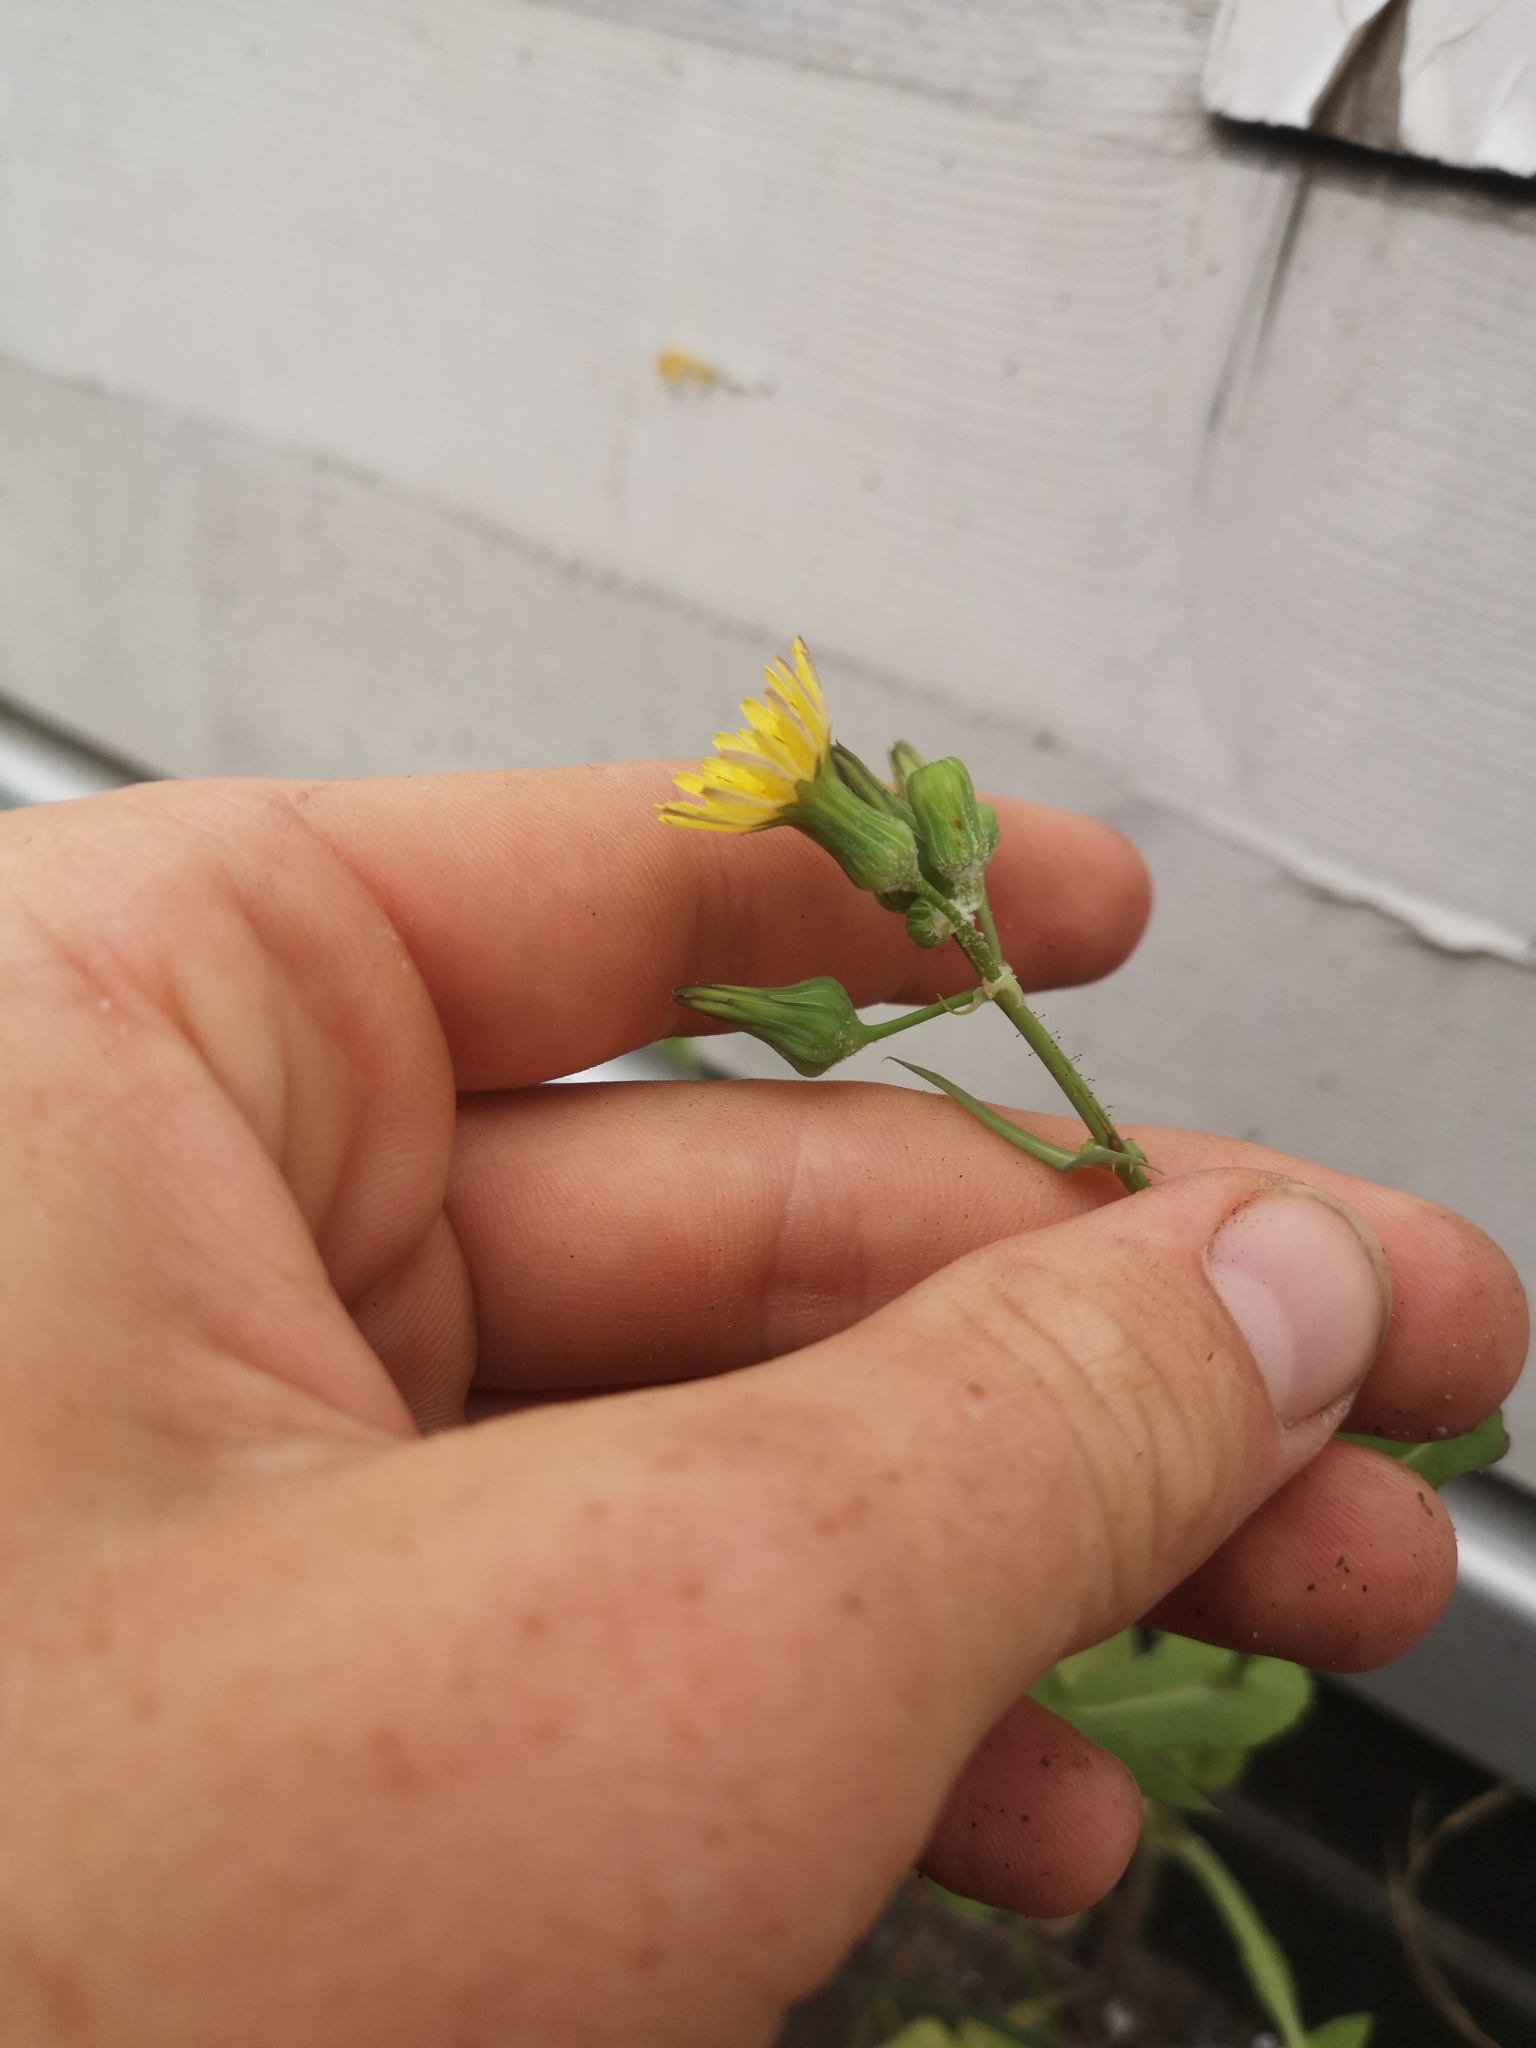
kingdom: Plantae
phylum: Tracheophyta
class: Magnoliopsida
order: Asterales
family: Asteraceae
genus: Sonchus
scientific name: Sonchus oleraceus
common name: Common sowthistle
